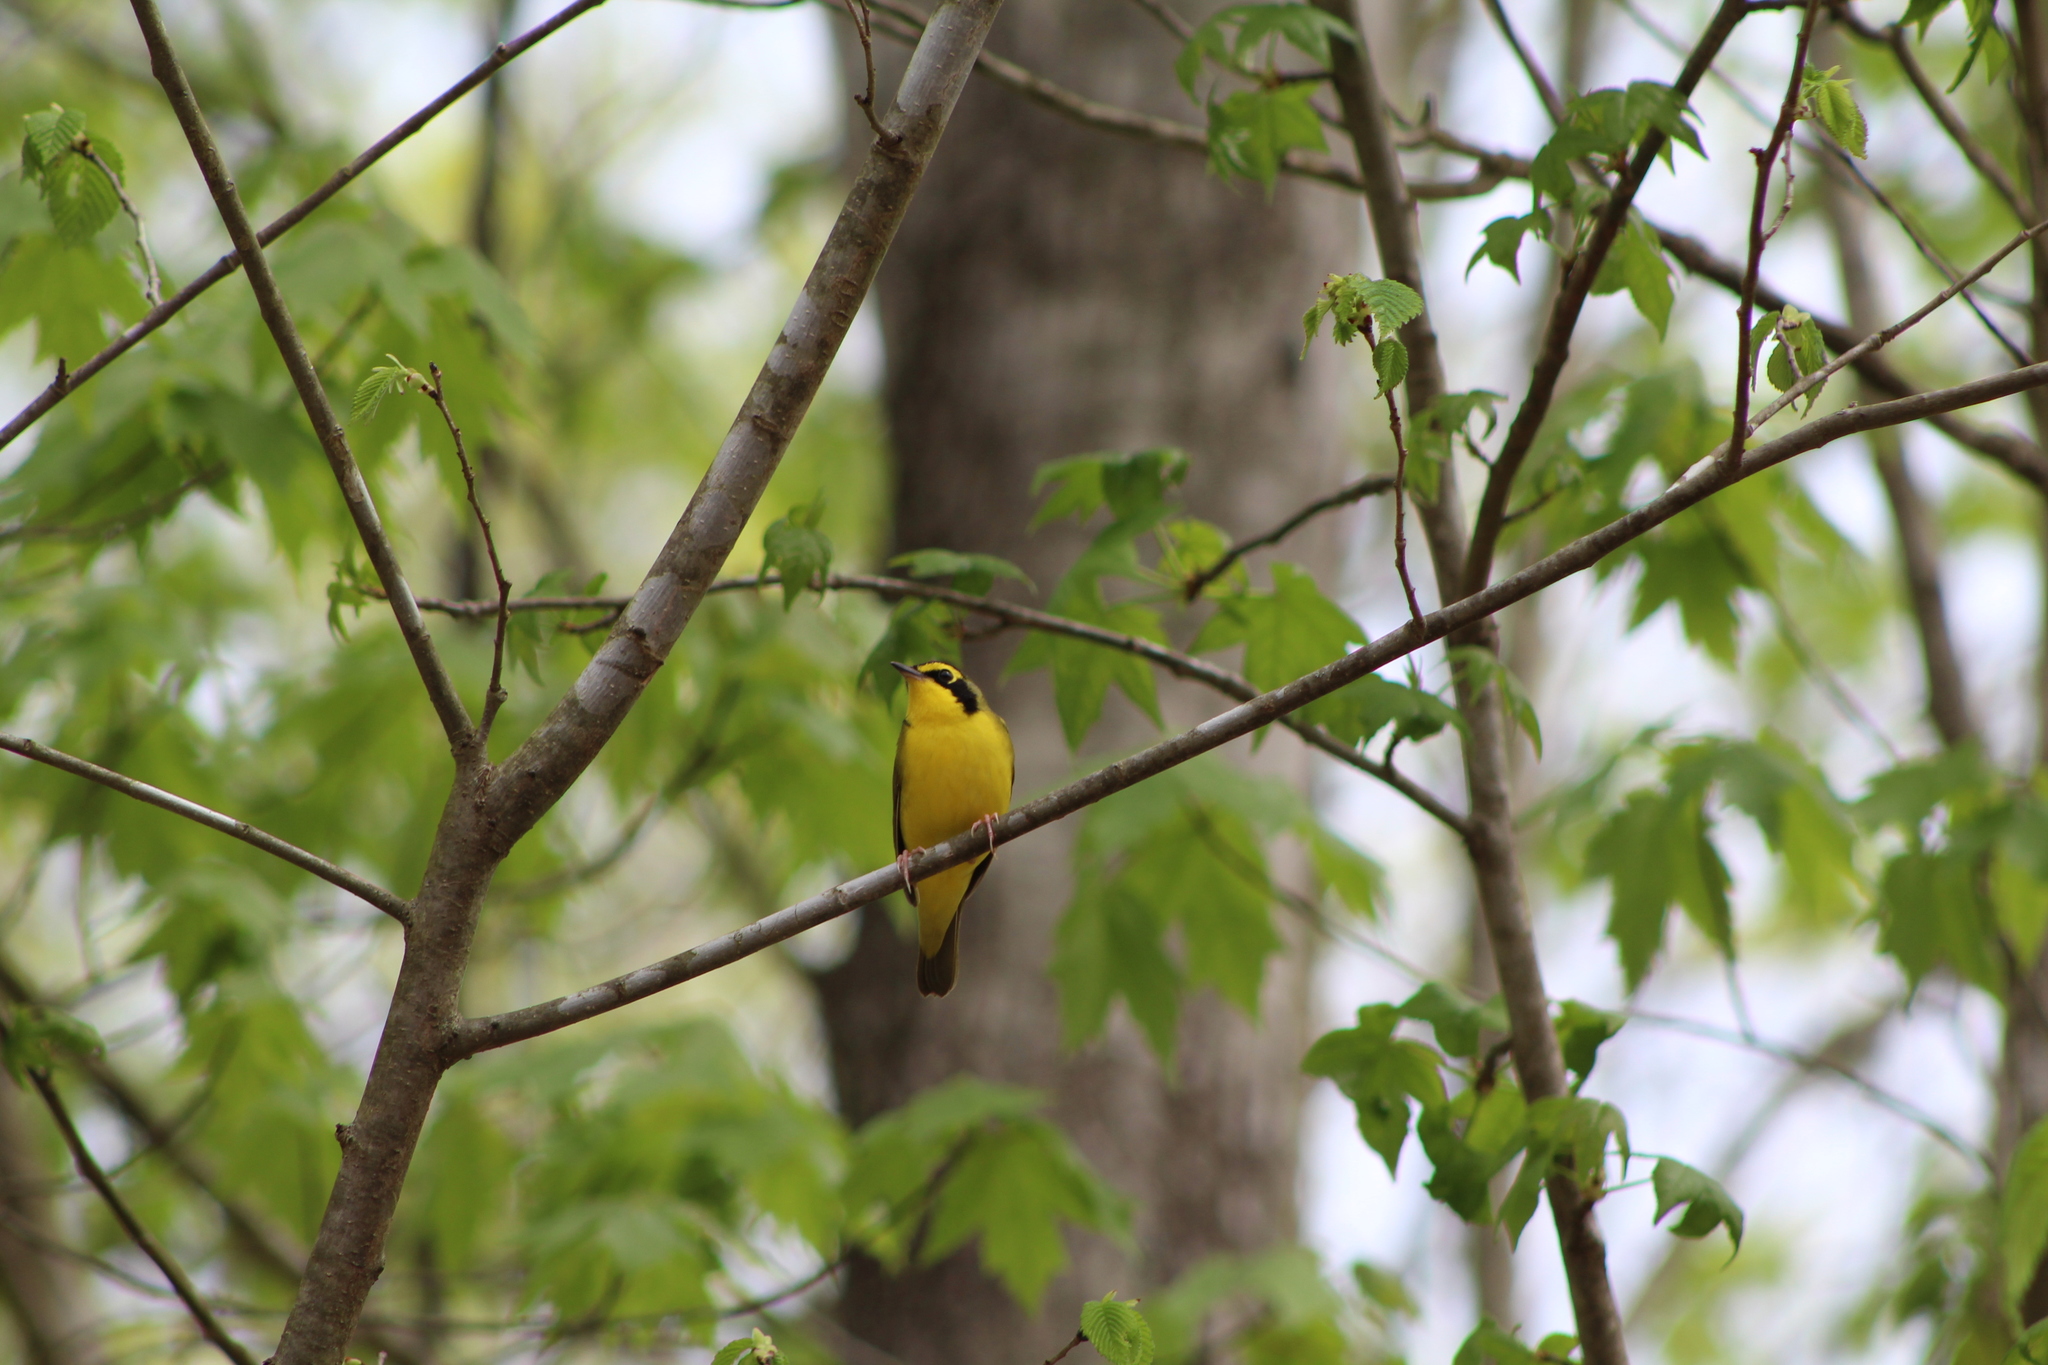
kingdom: Animalia
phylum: Chordata
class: Aves
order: Passeriformes
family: Parulidae
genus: Geothlypis
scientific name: Geothlypis formosa
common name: Kentucky warbler
